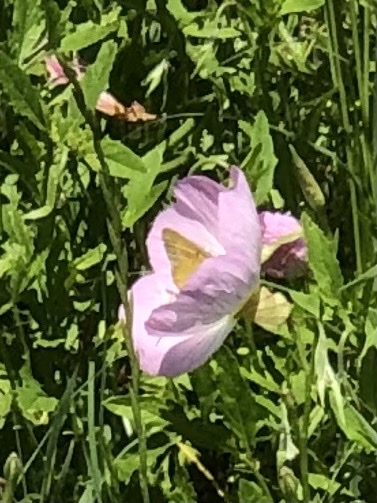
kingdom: Animalia
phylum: Arthropoda
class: Insecta
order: Lepidoptera
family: Pieridae
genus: Colias
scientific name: Colias eurytheme
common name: Alfalfa butterfly
